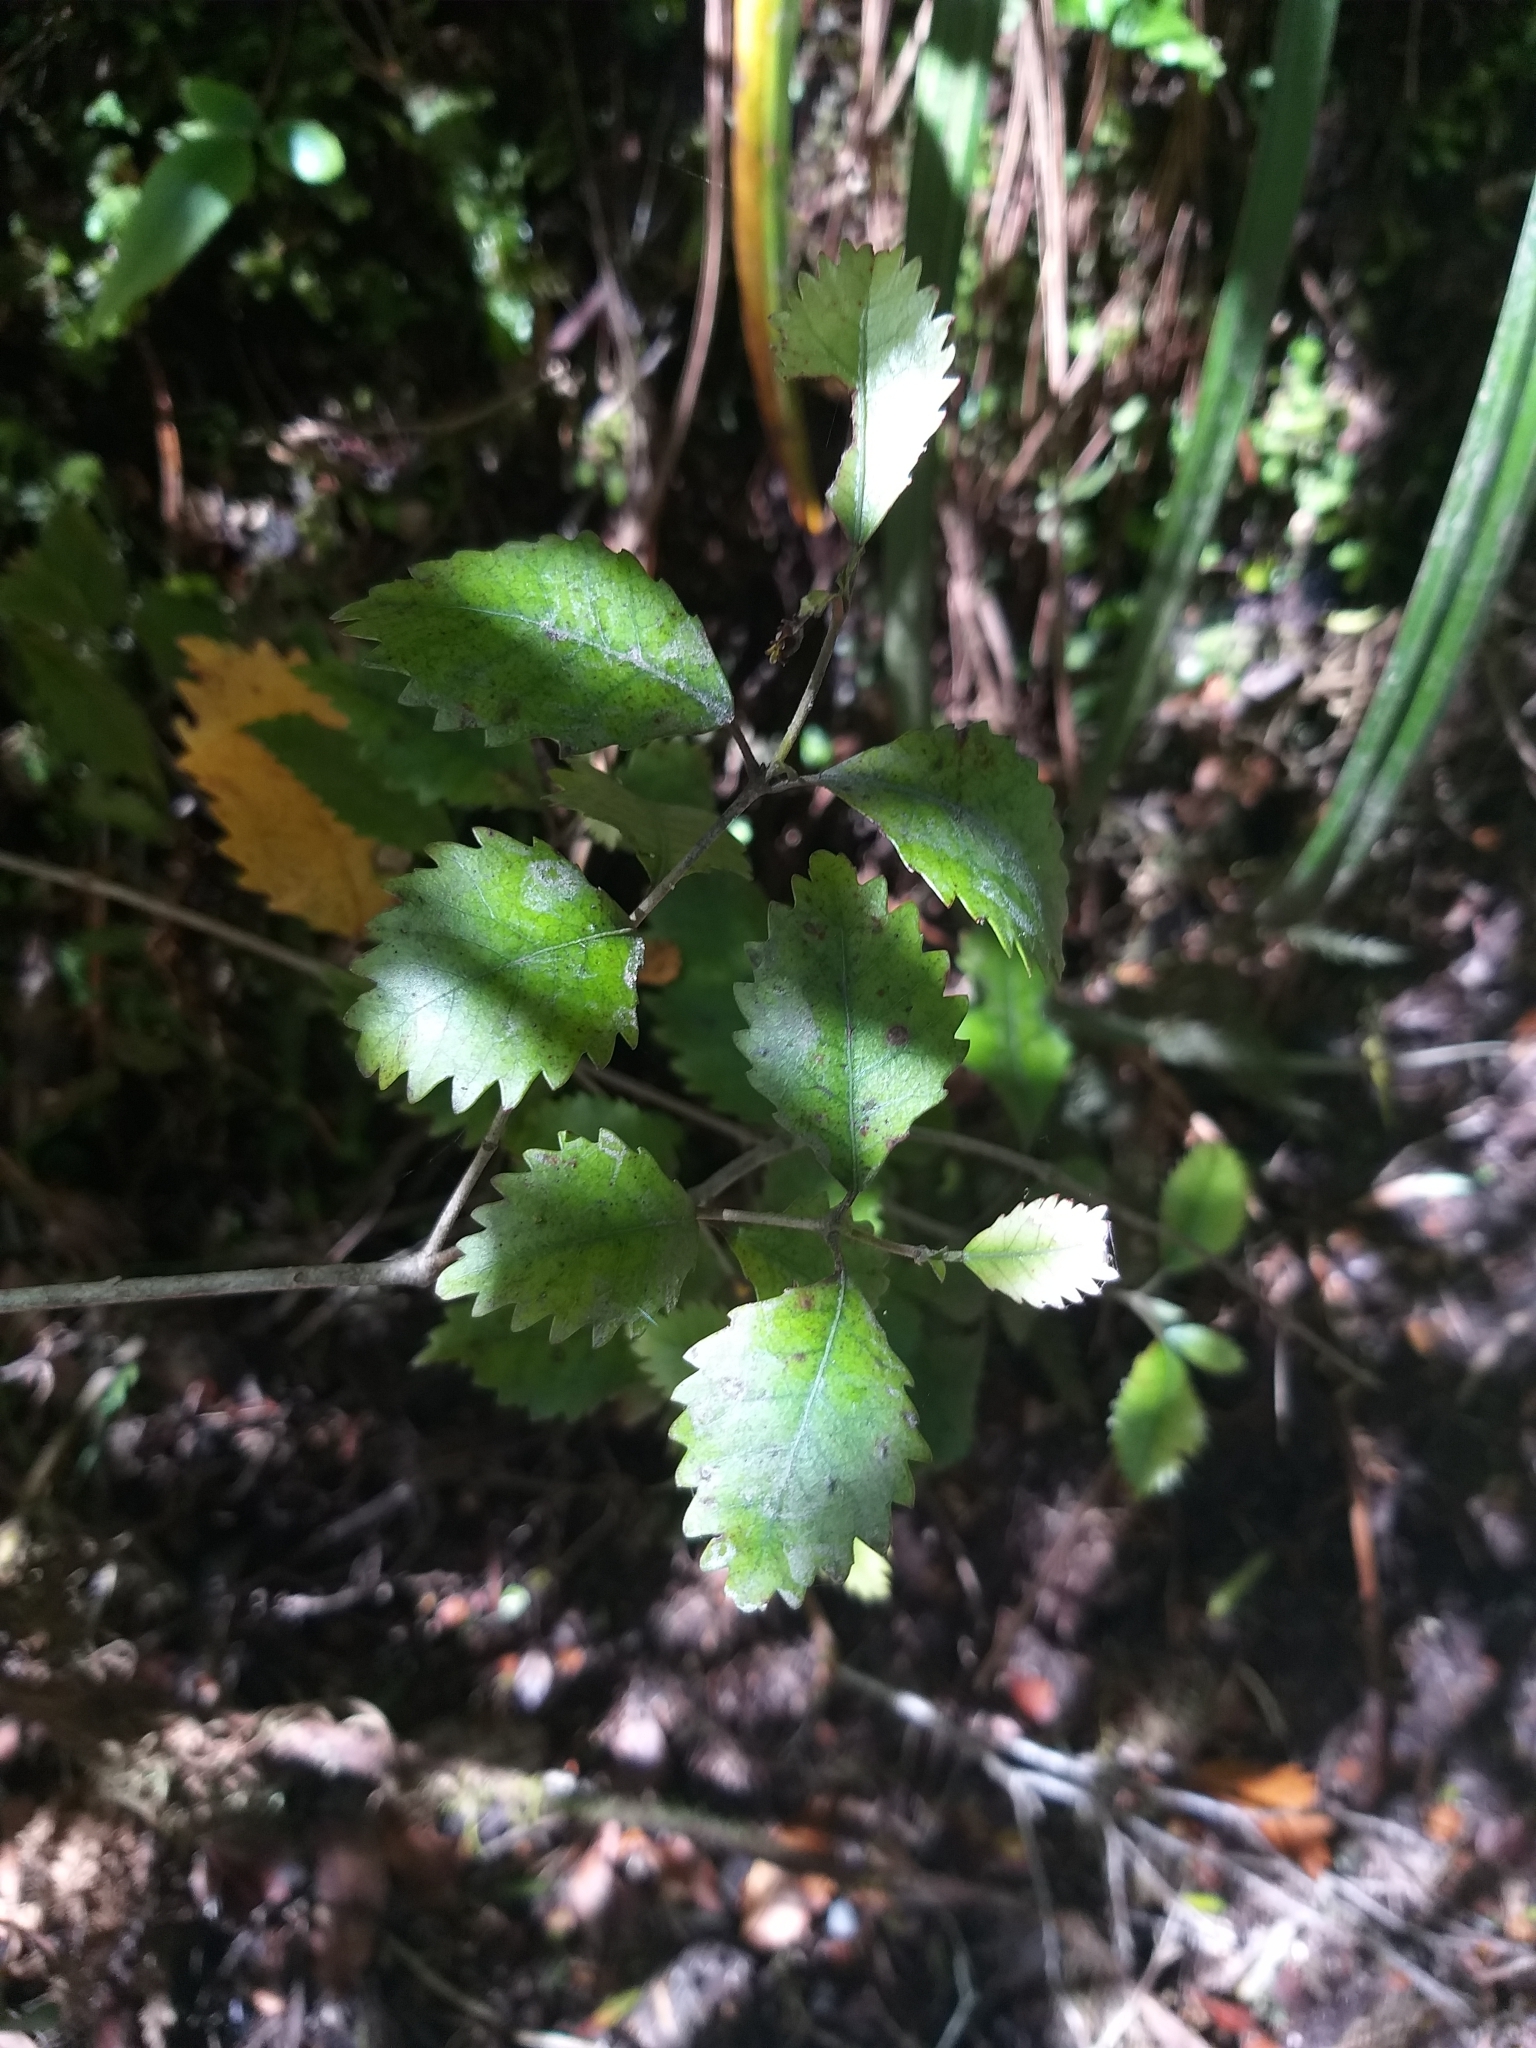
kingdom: Plantae
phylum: Tracheophyta
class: Magnoliopsida
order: Oxalidales
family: Cunoniaceae
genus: Pterophylla
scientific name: Pterophylla racemosa
